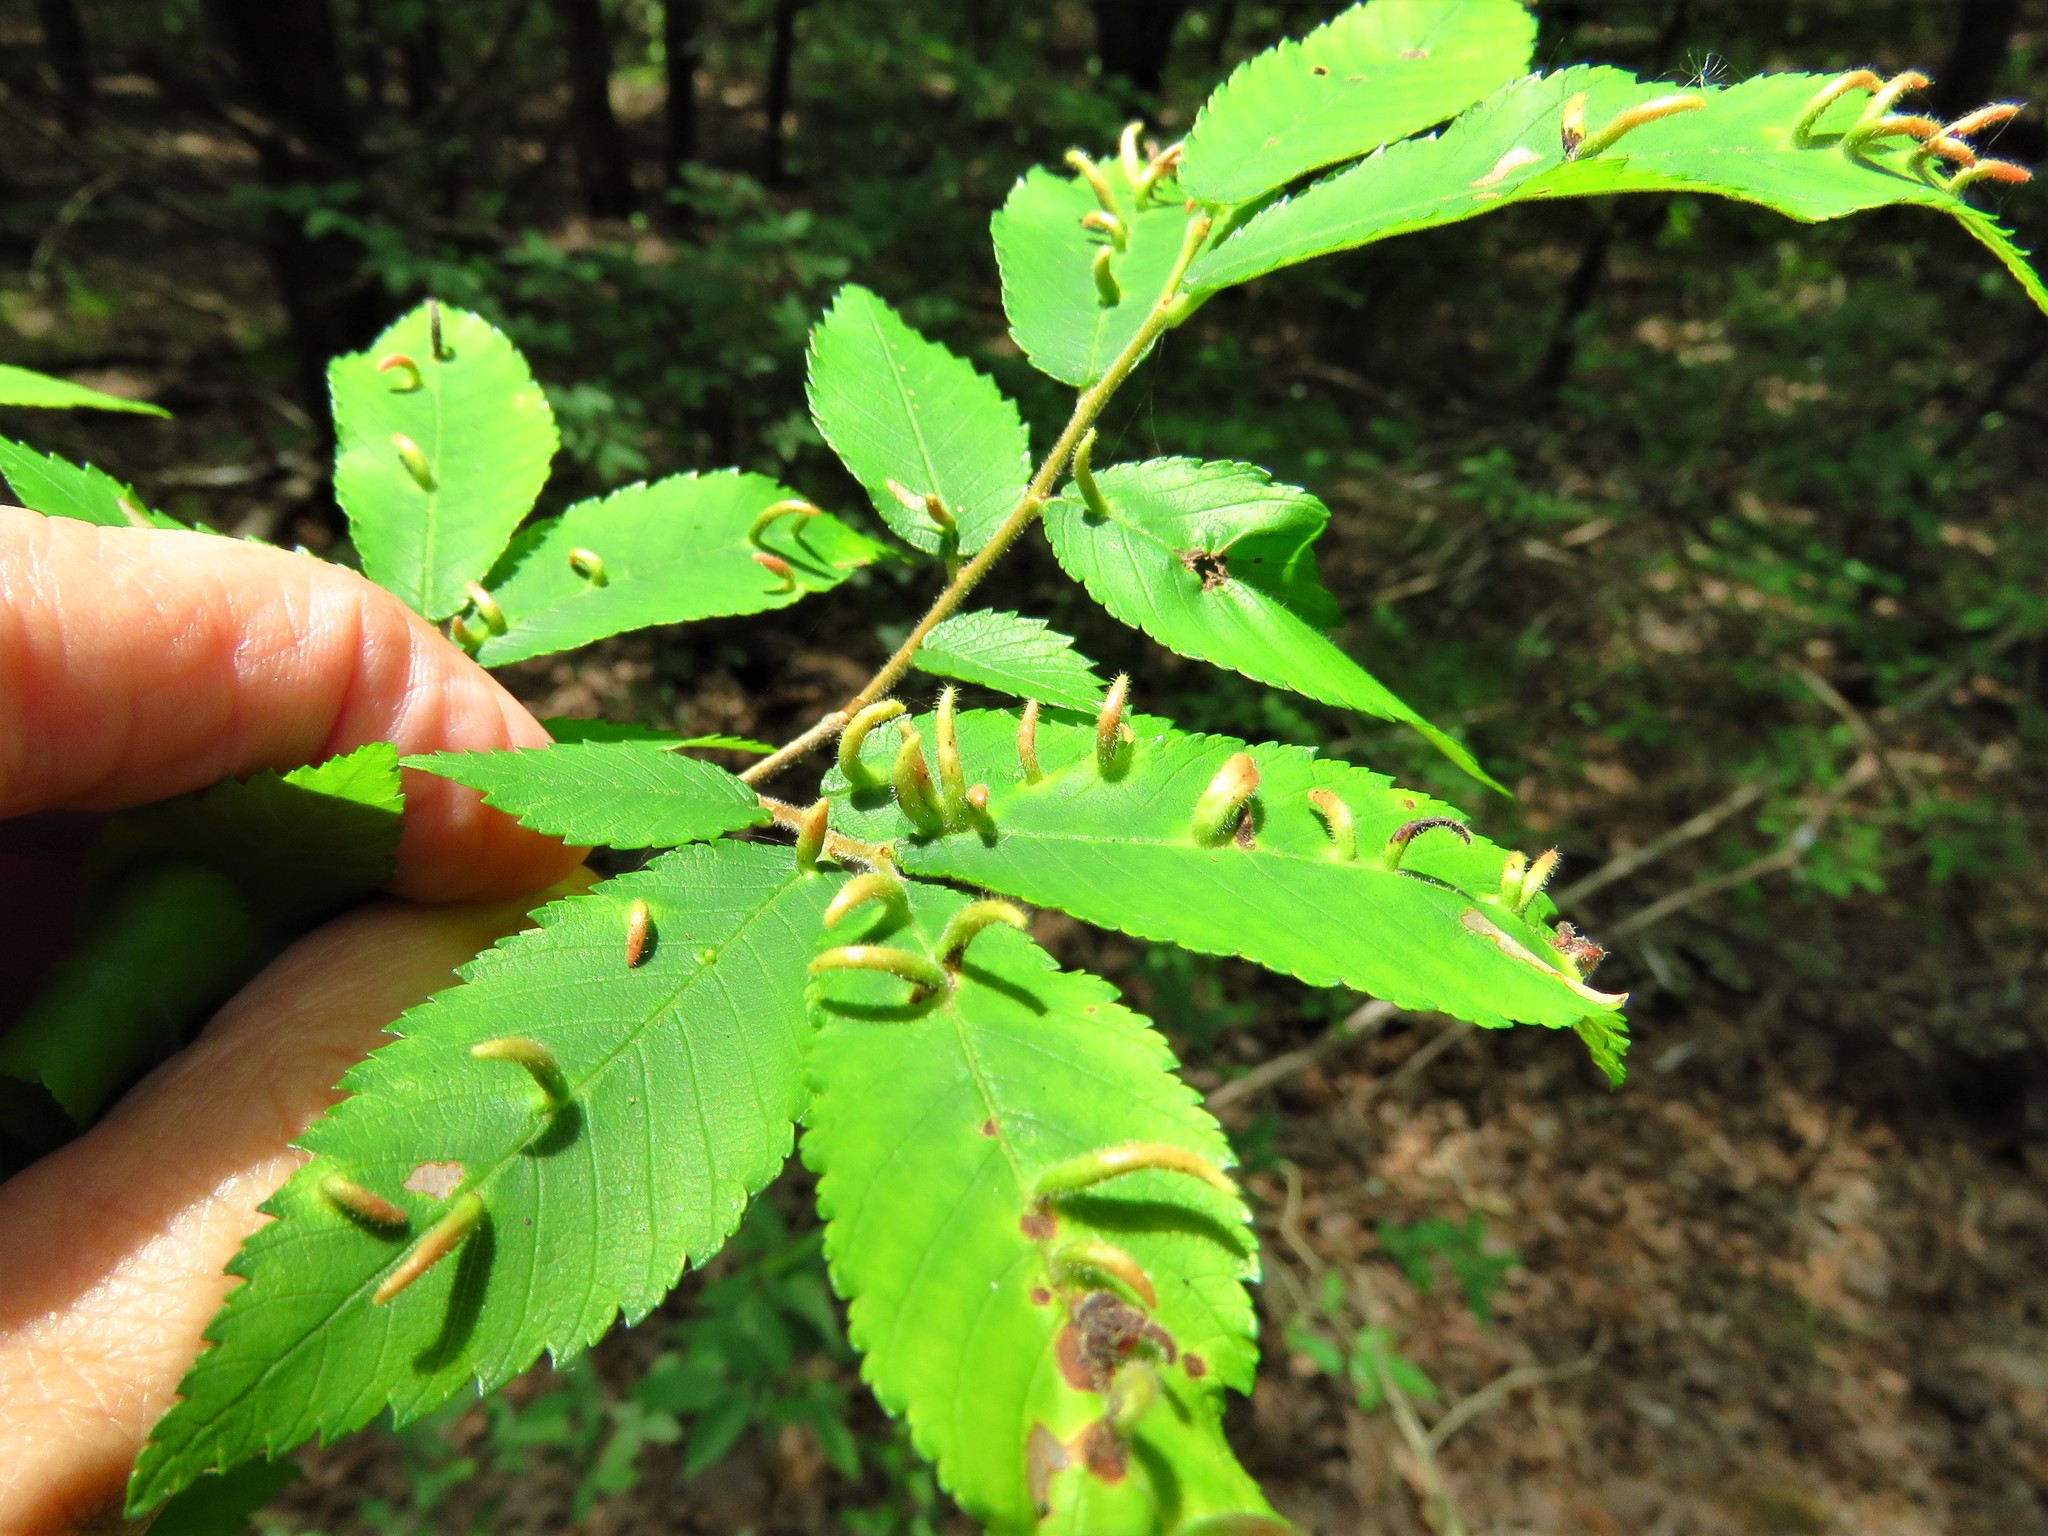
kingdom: Animalia
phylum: Arthropoda
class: Arachnida
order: Trombidiformes
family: Eriophyidae
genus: Aceria
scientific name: Aceria
